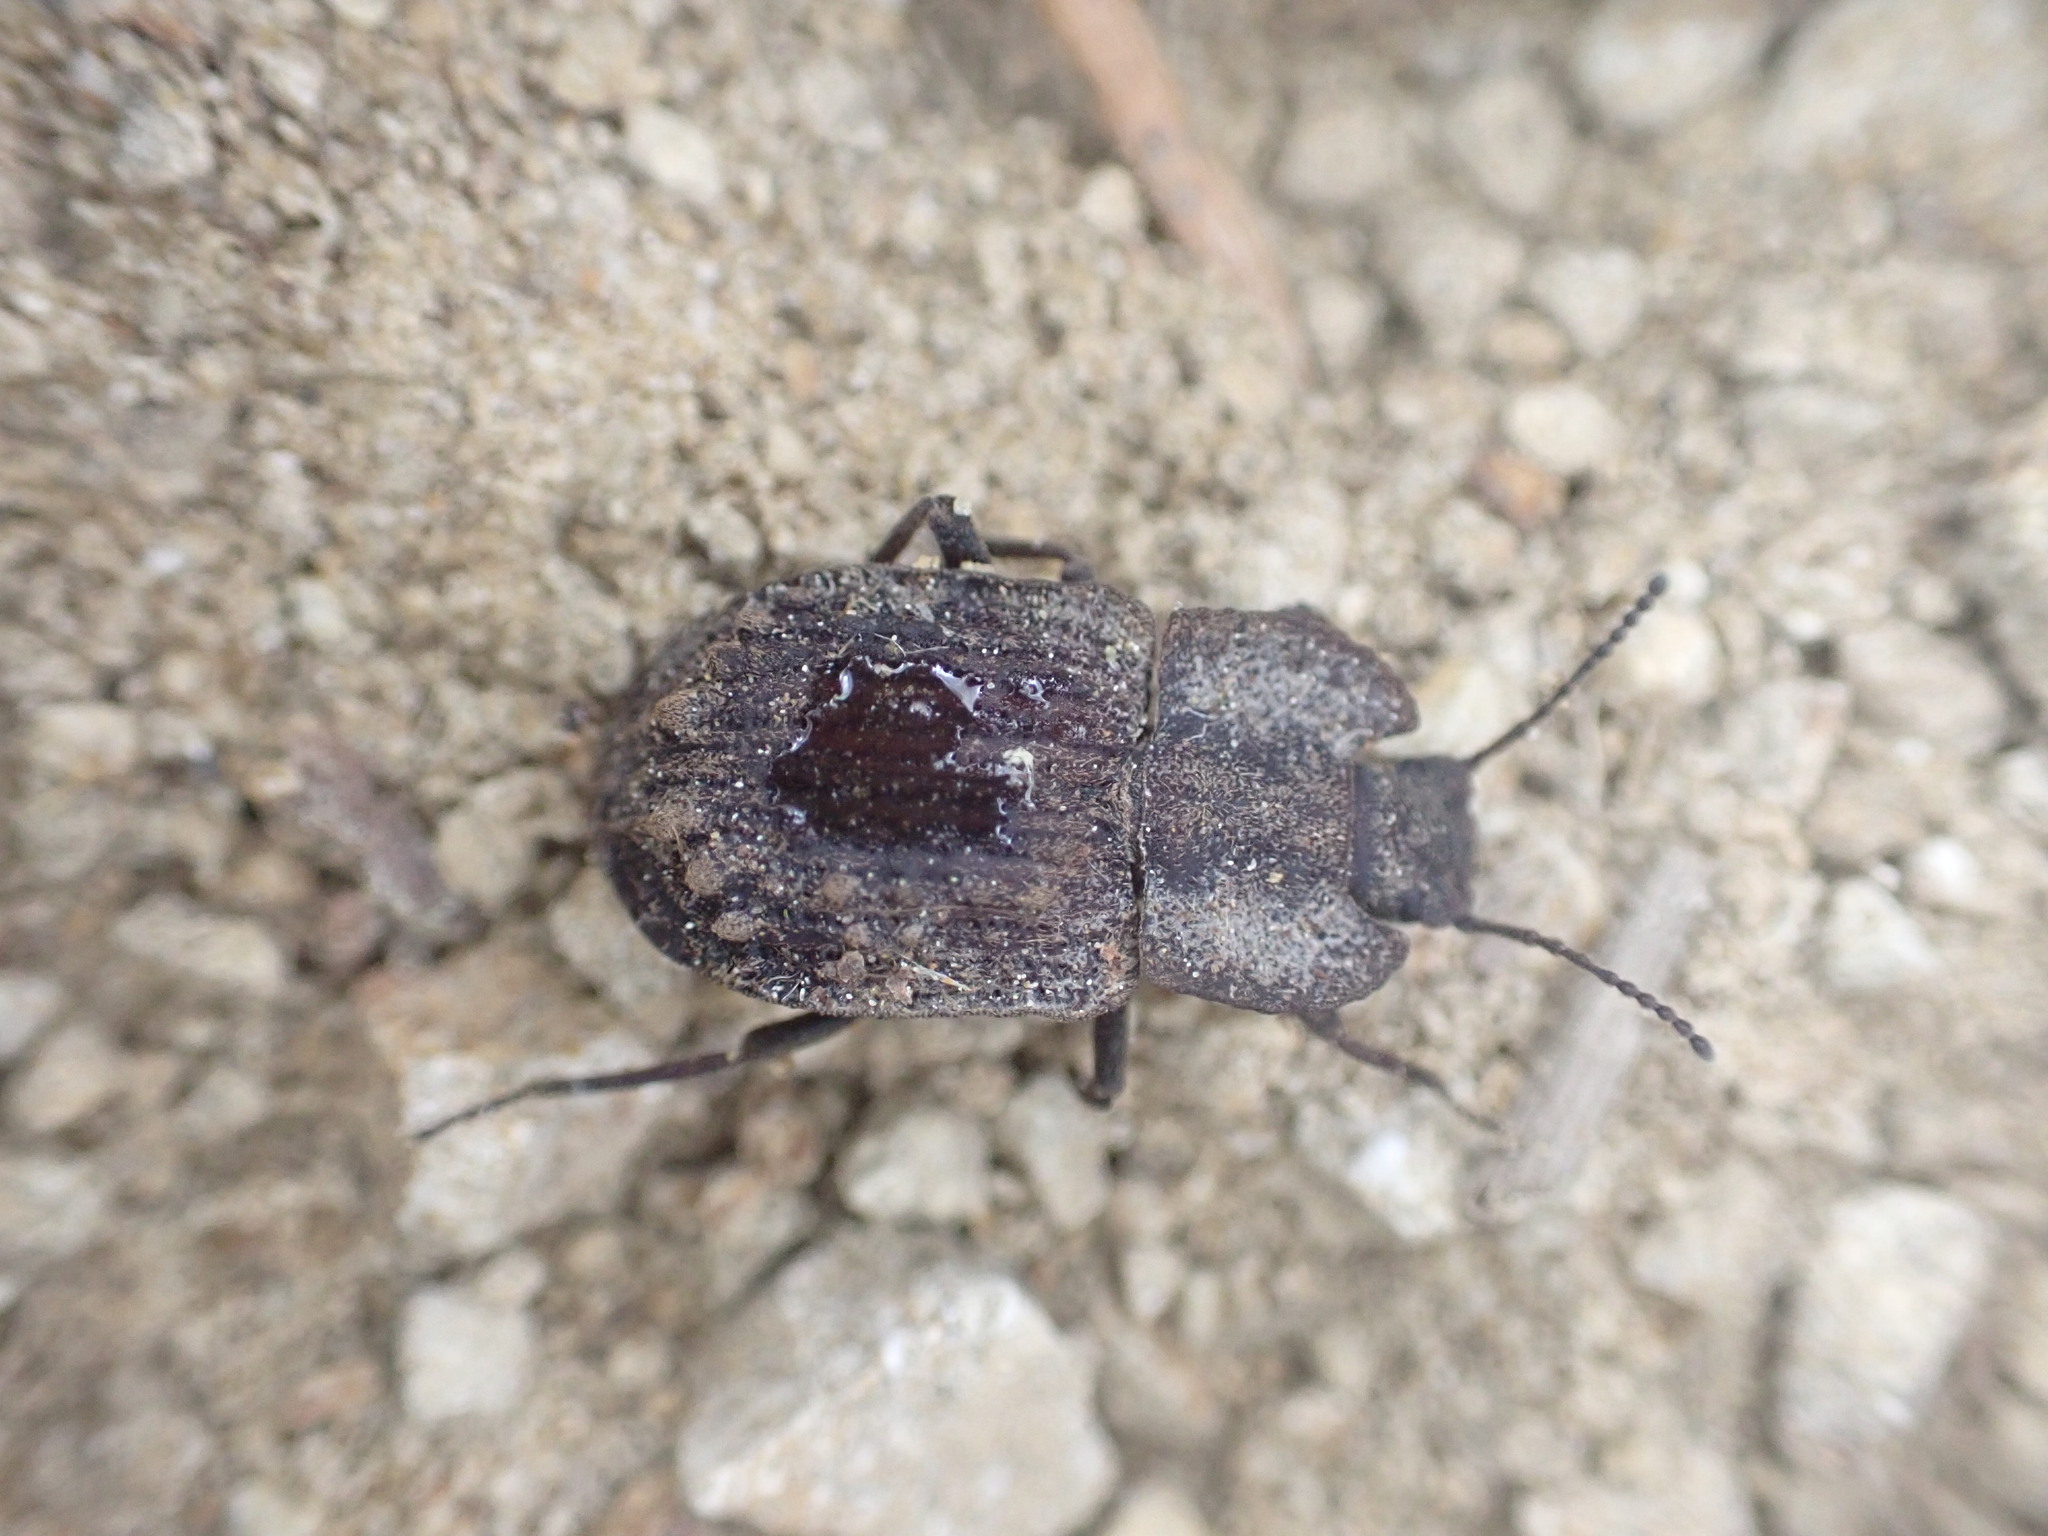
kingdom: Animalia
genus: Mitua
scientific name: Mitua
